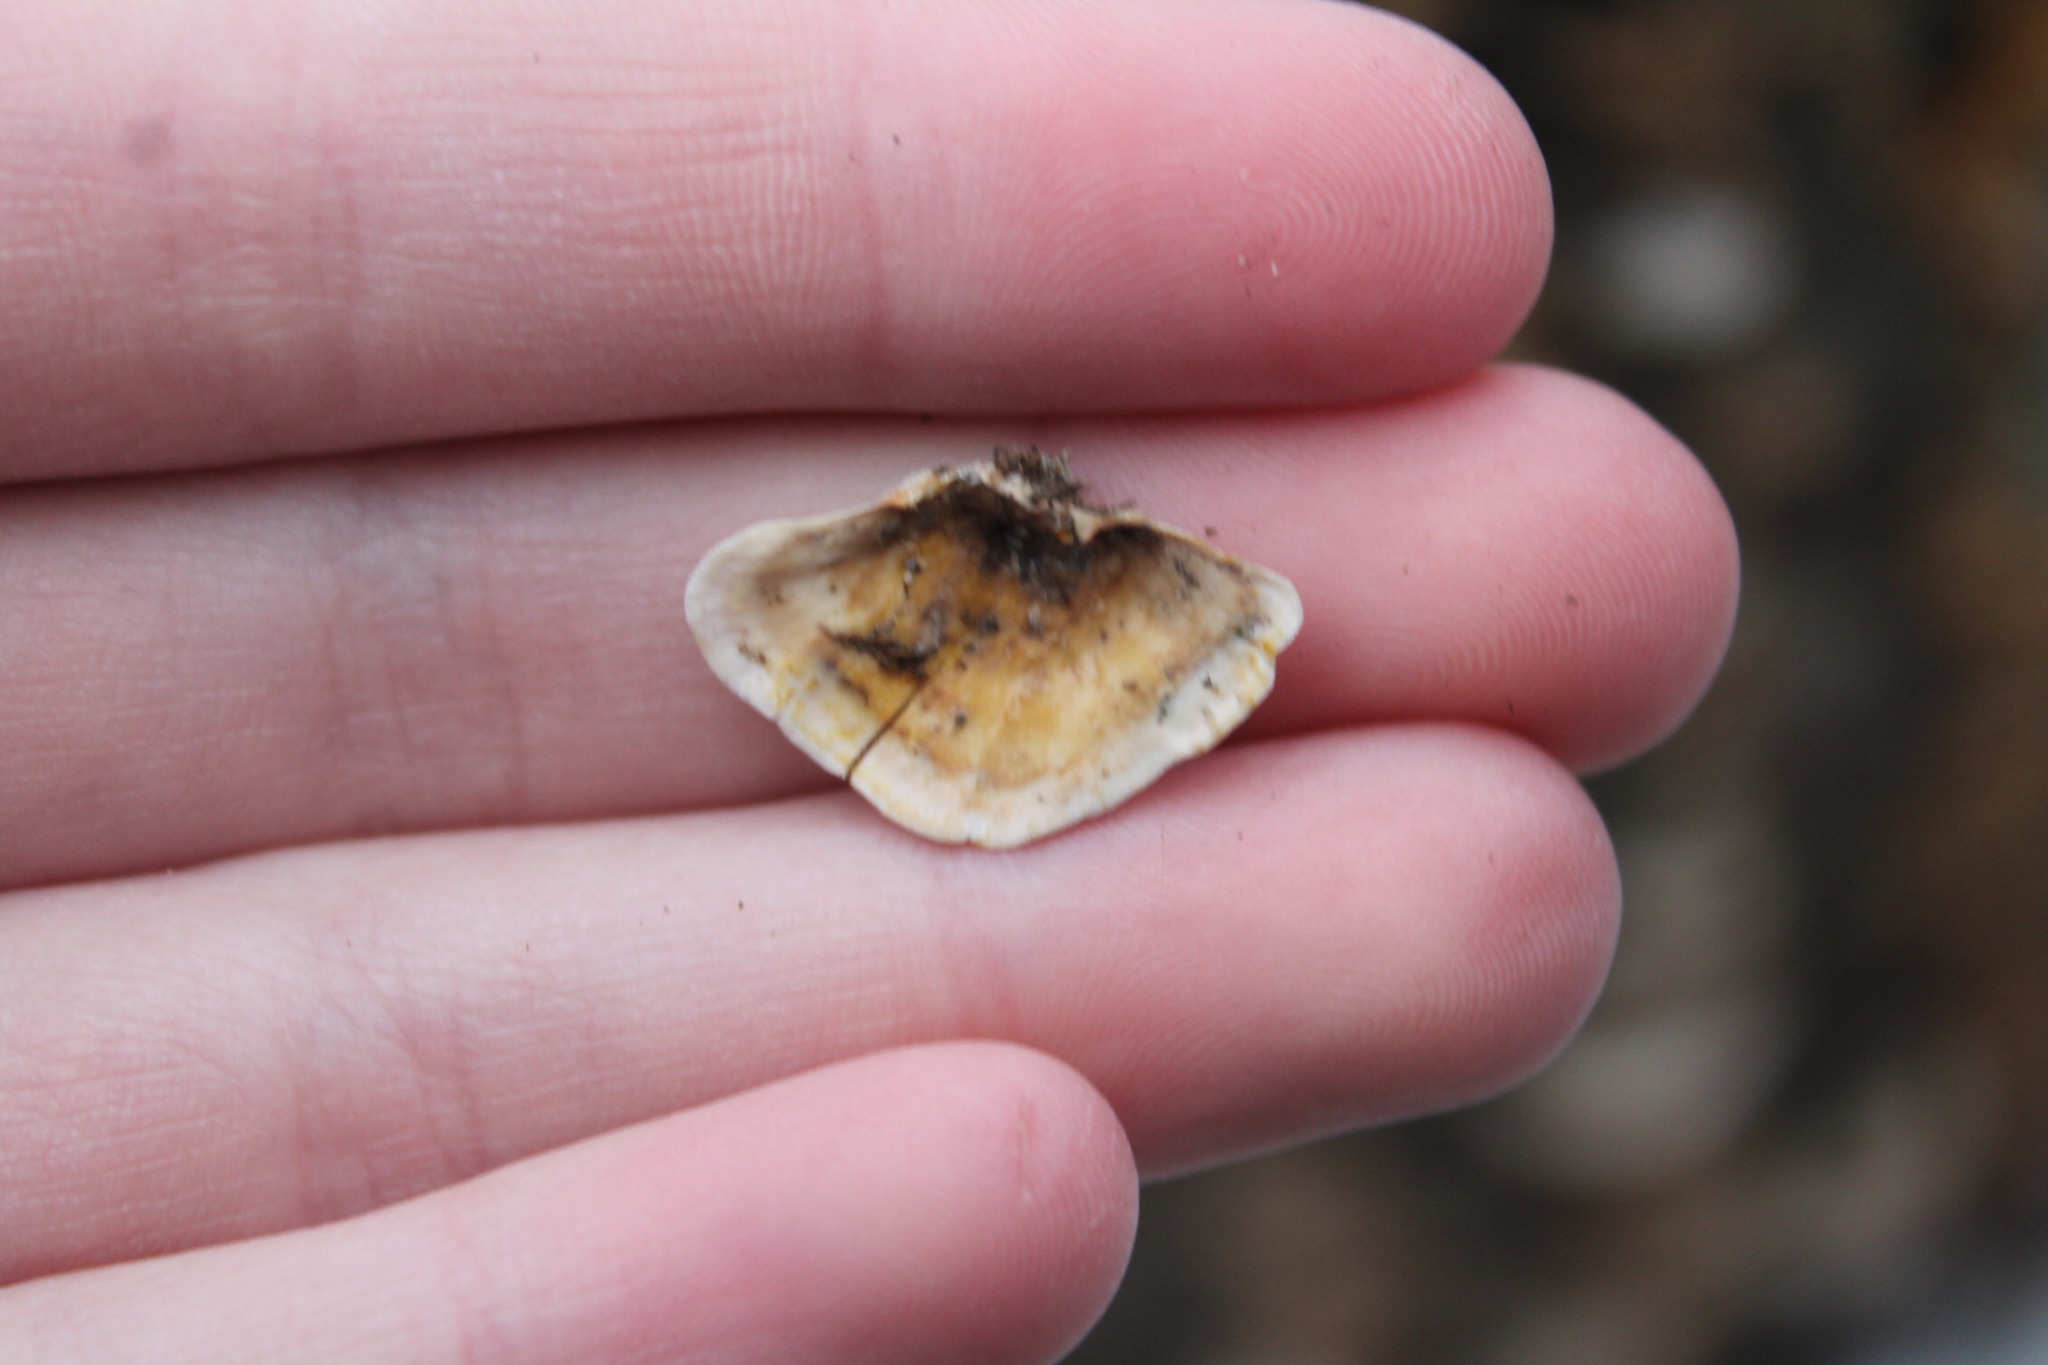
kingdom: Fungi
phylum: Basidiomycota
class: Agaricomycetes
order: Russulales
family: Stereaceae
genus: Stereum
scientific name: Stereum subtomentosum
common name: Yellowing curtain crust
